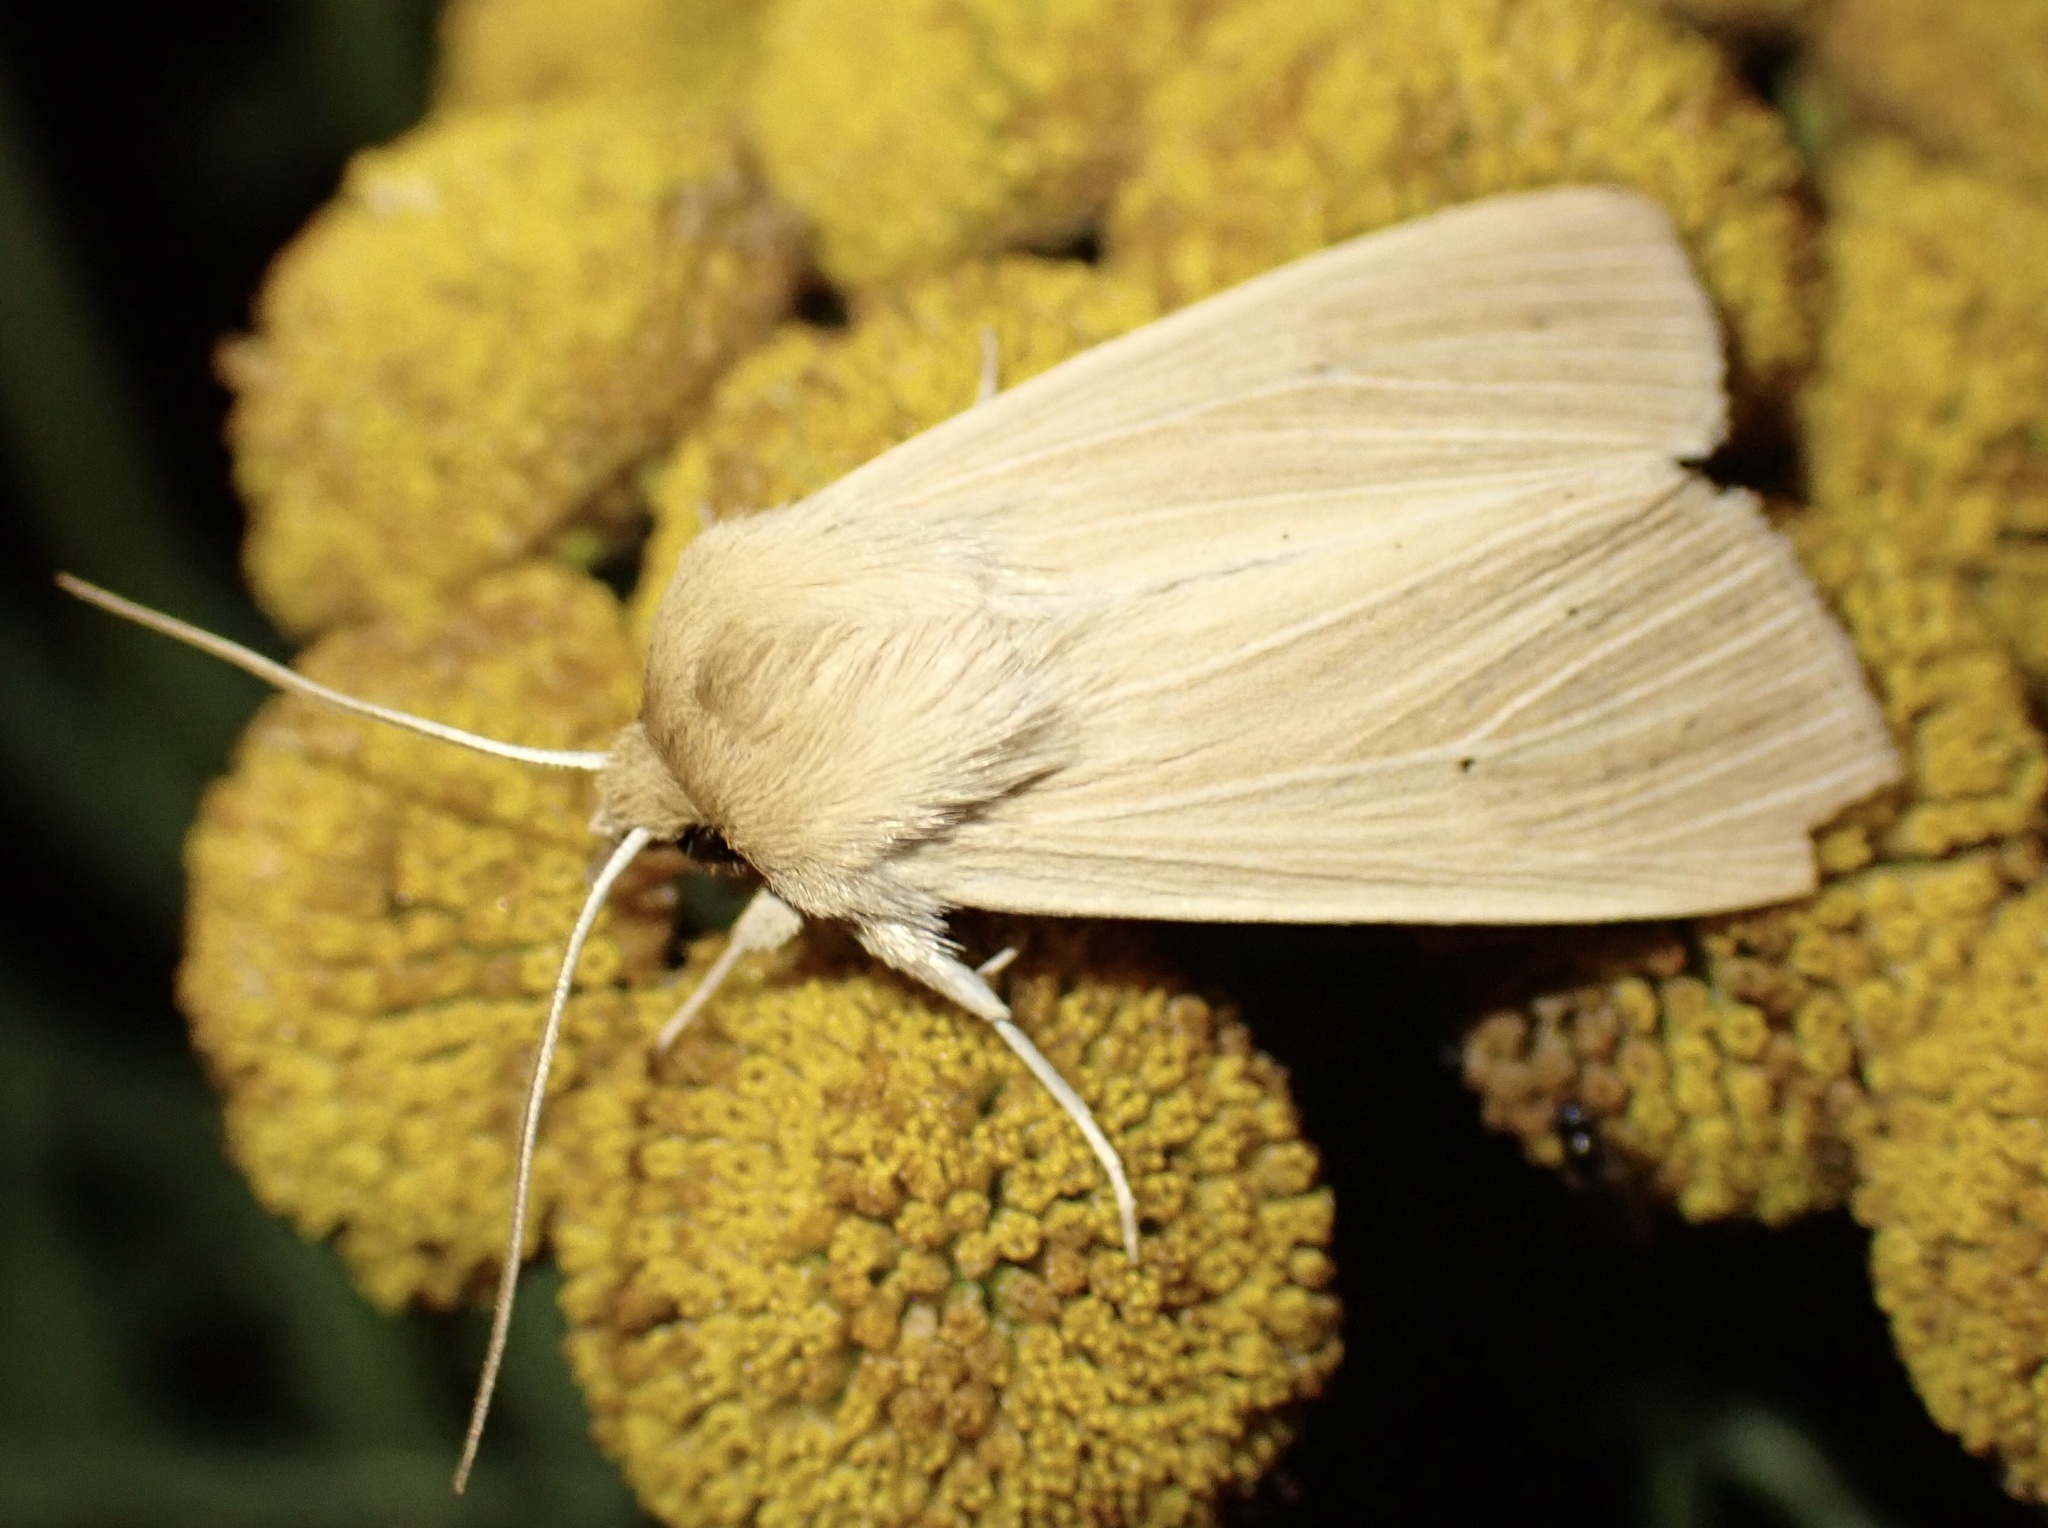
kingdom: Animalia
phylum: Arthropoda
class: Insecta
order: Lepidoptera
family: Noctuidae
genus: Mythimna
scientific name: Mythimna pallens
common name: Common wainscot
